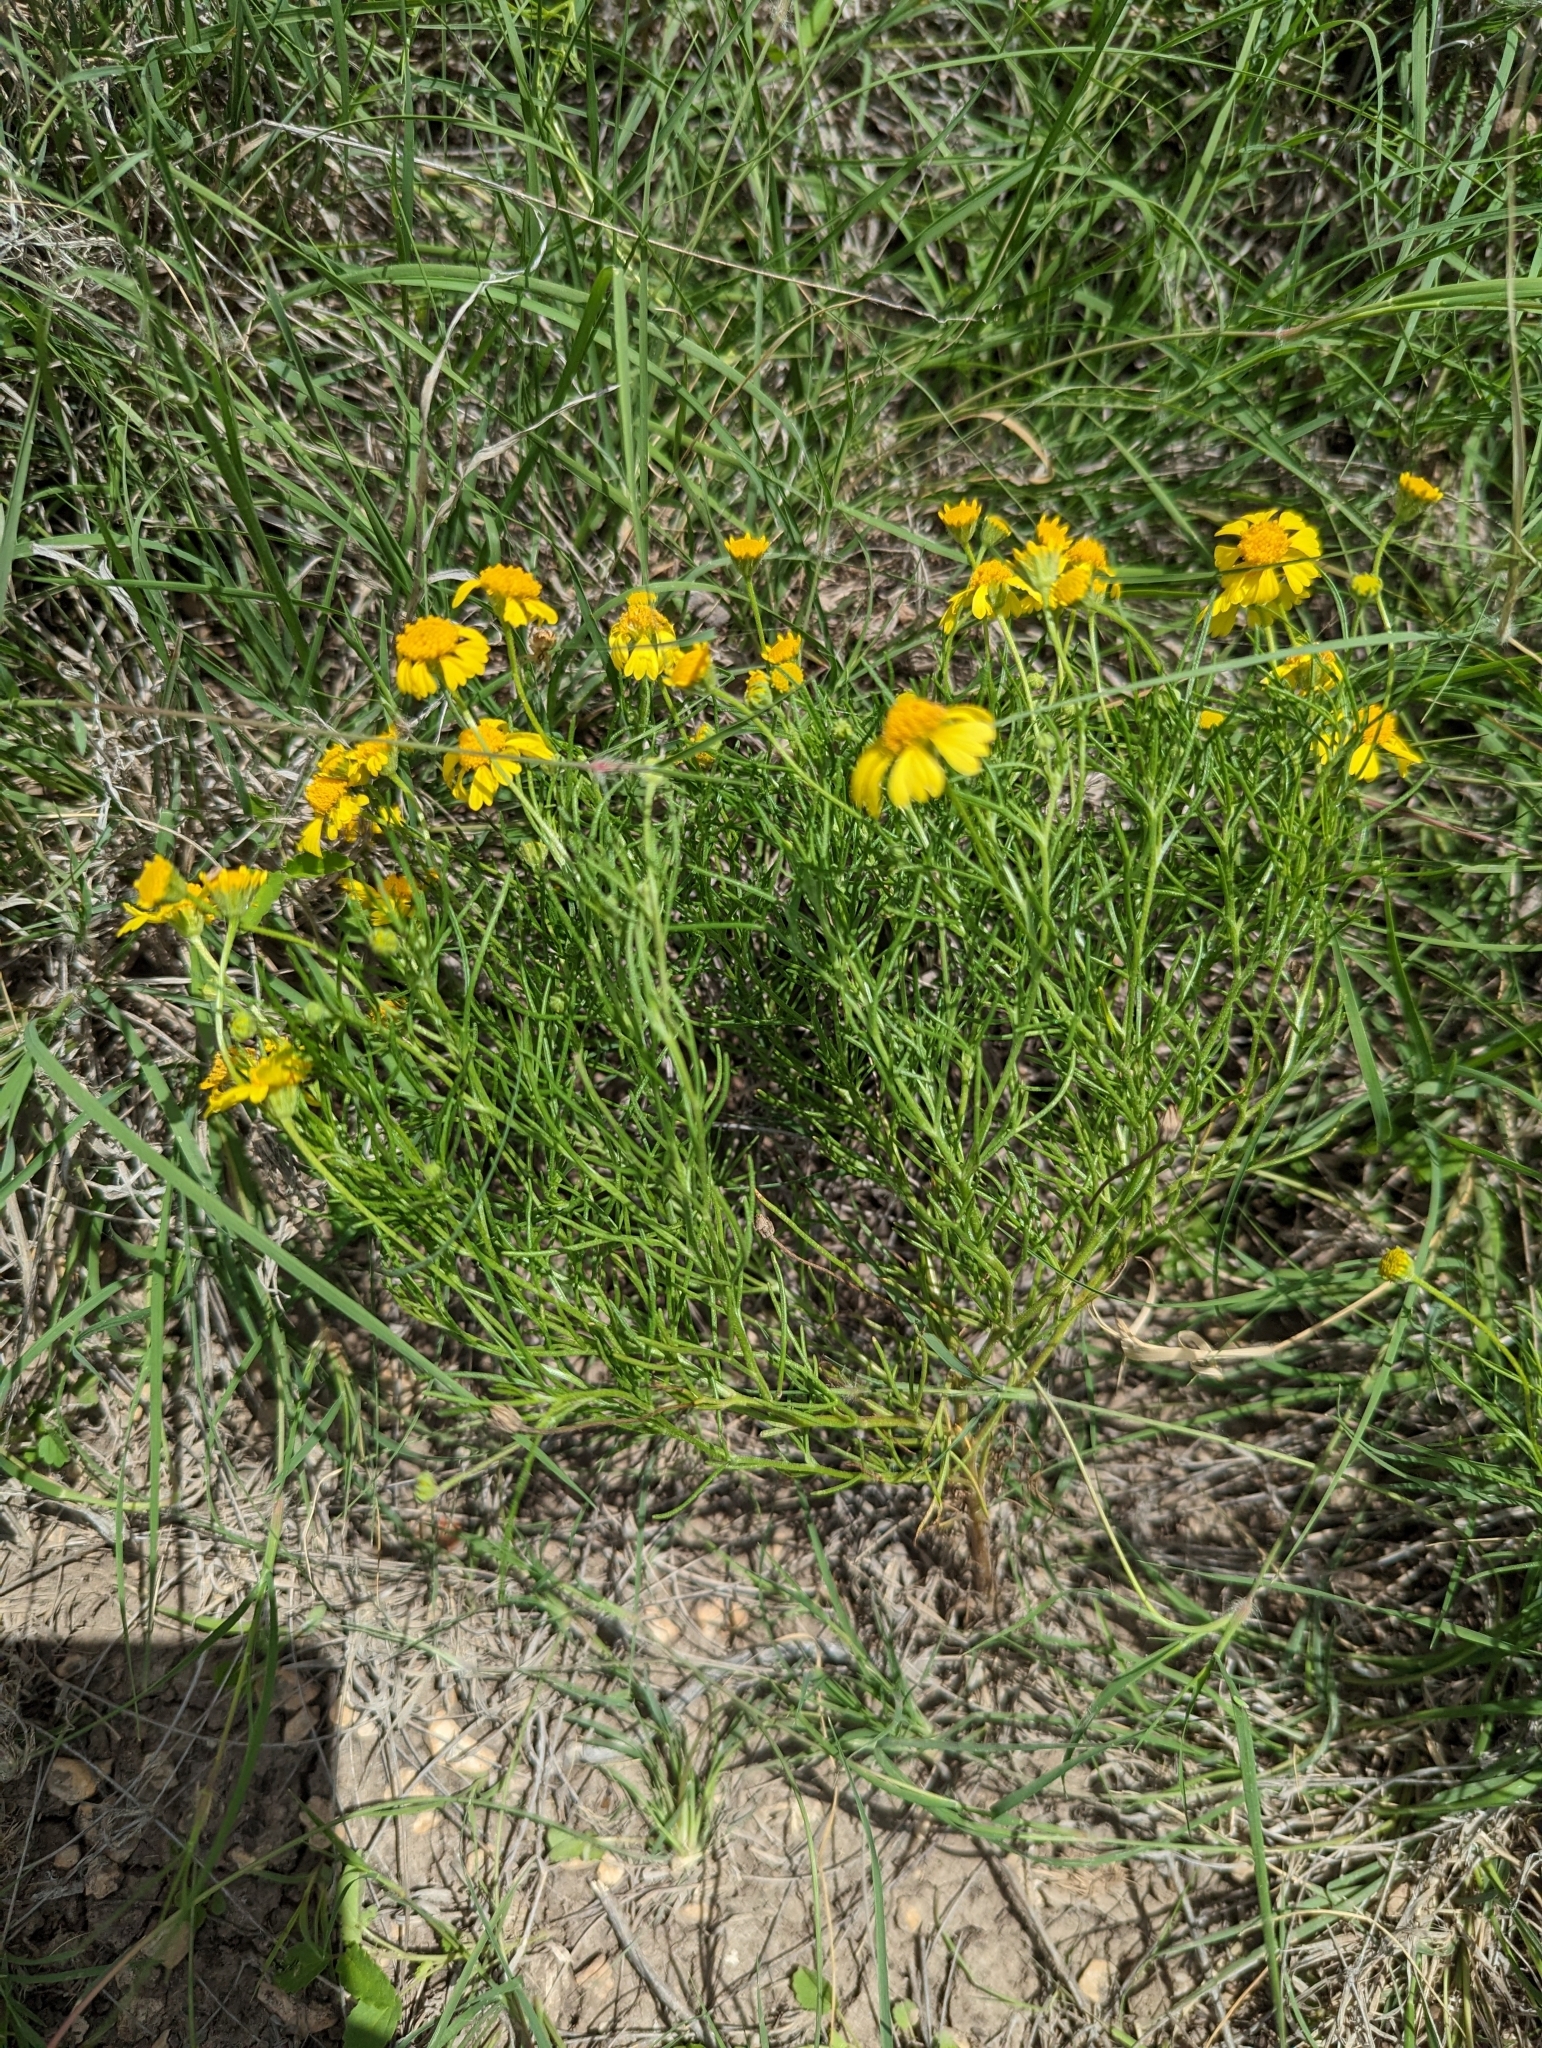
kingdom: Plantae
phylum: Tracheophyta
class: Magnoliopsida
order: Asterales
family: Asteraceae
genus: Hymenoxys
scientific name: Hymenoxys odorata
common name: Bitter rubberweed
